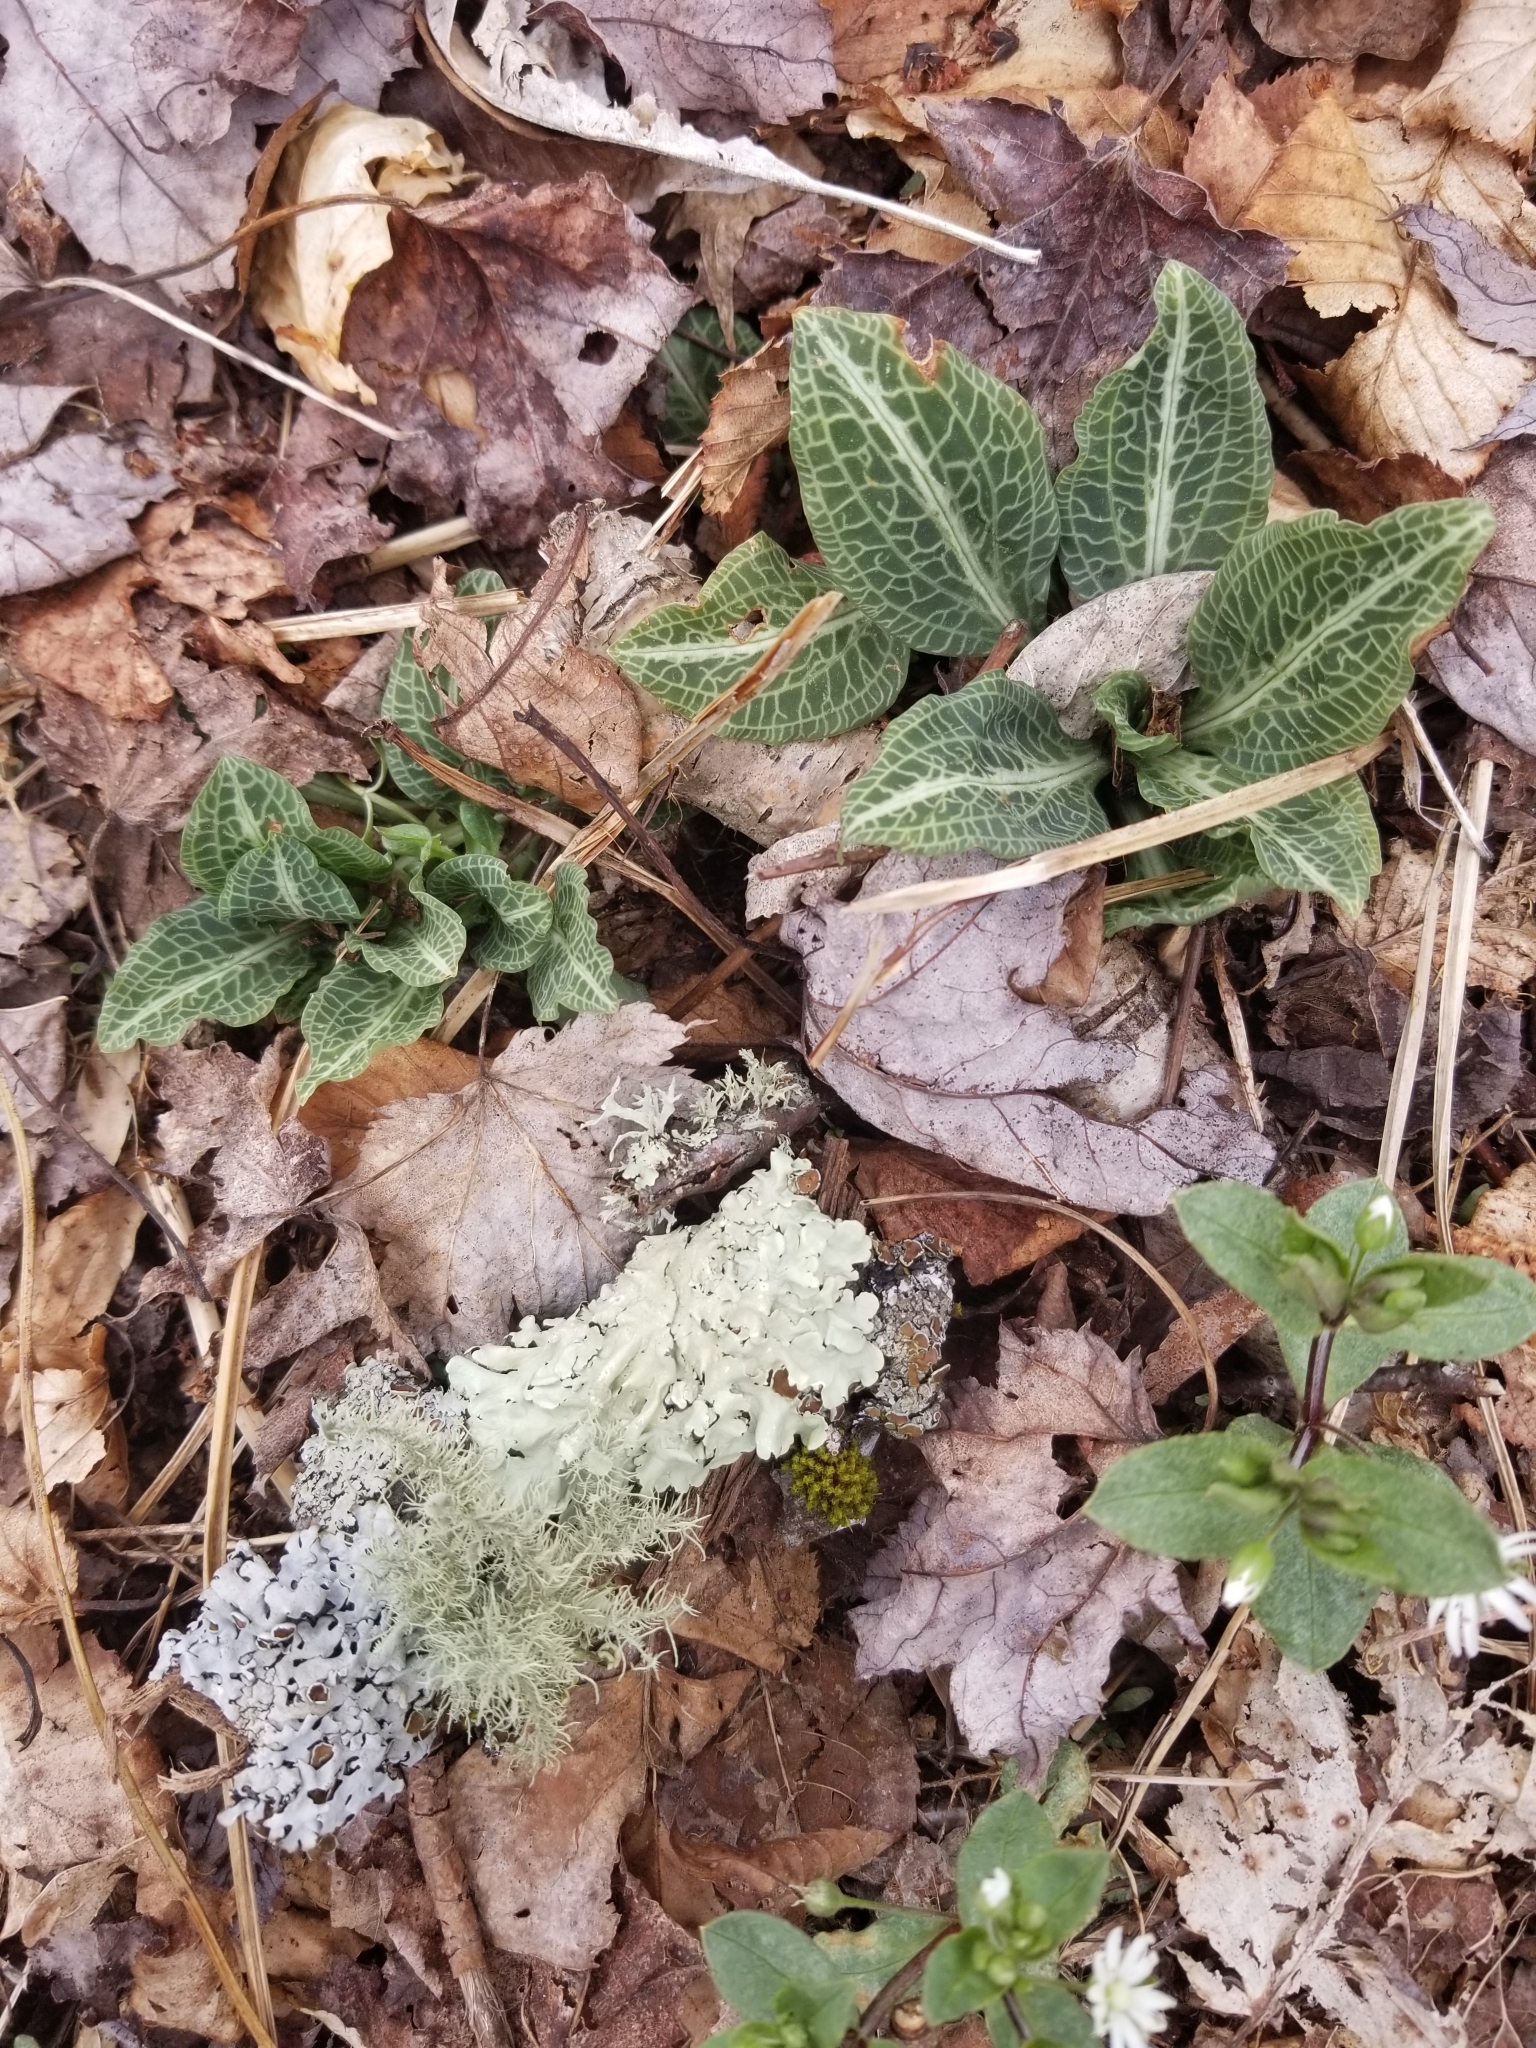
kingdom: Plantae
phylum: Tracheophyta
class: Liliopsida
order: Asparagales
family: Orchidaceae
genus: Goodyera
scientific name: Goodyera pubescens
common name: Downy rattlesnake-plantain
